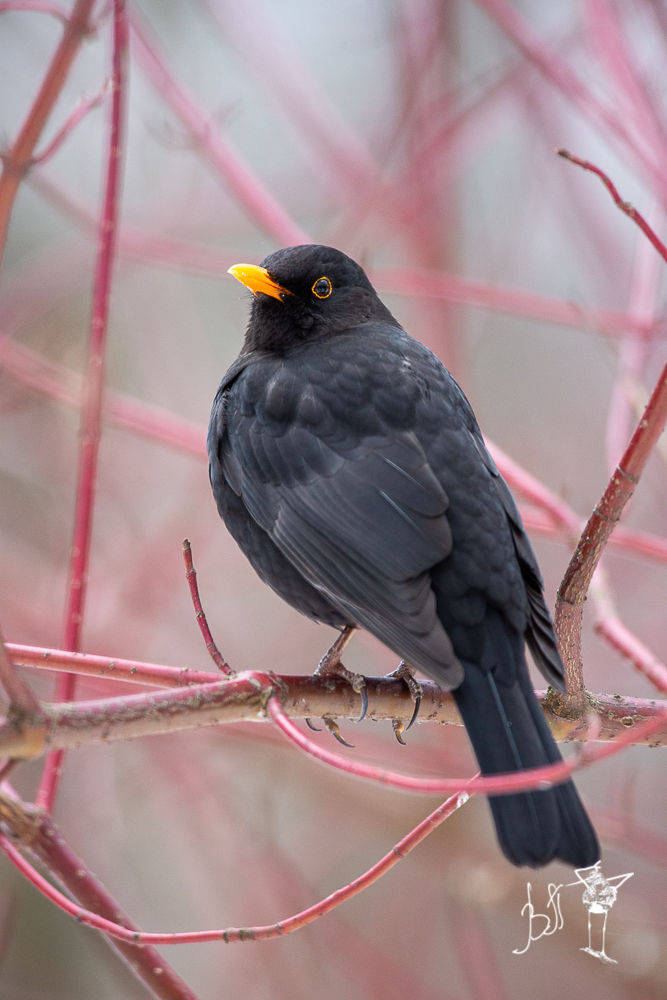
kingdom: Animalia
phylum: Chordata
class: Aves
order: Passeriformes
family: Turdidae
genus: Turdus
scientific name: Turdus merula
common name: Common blackbird
